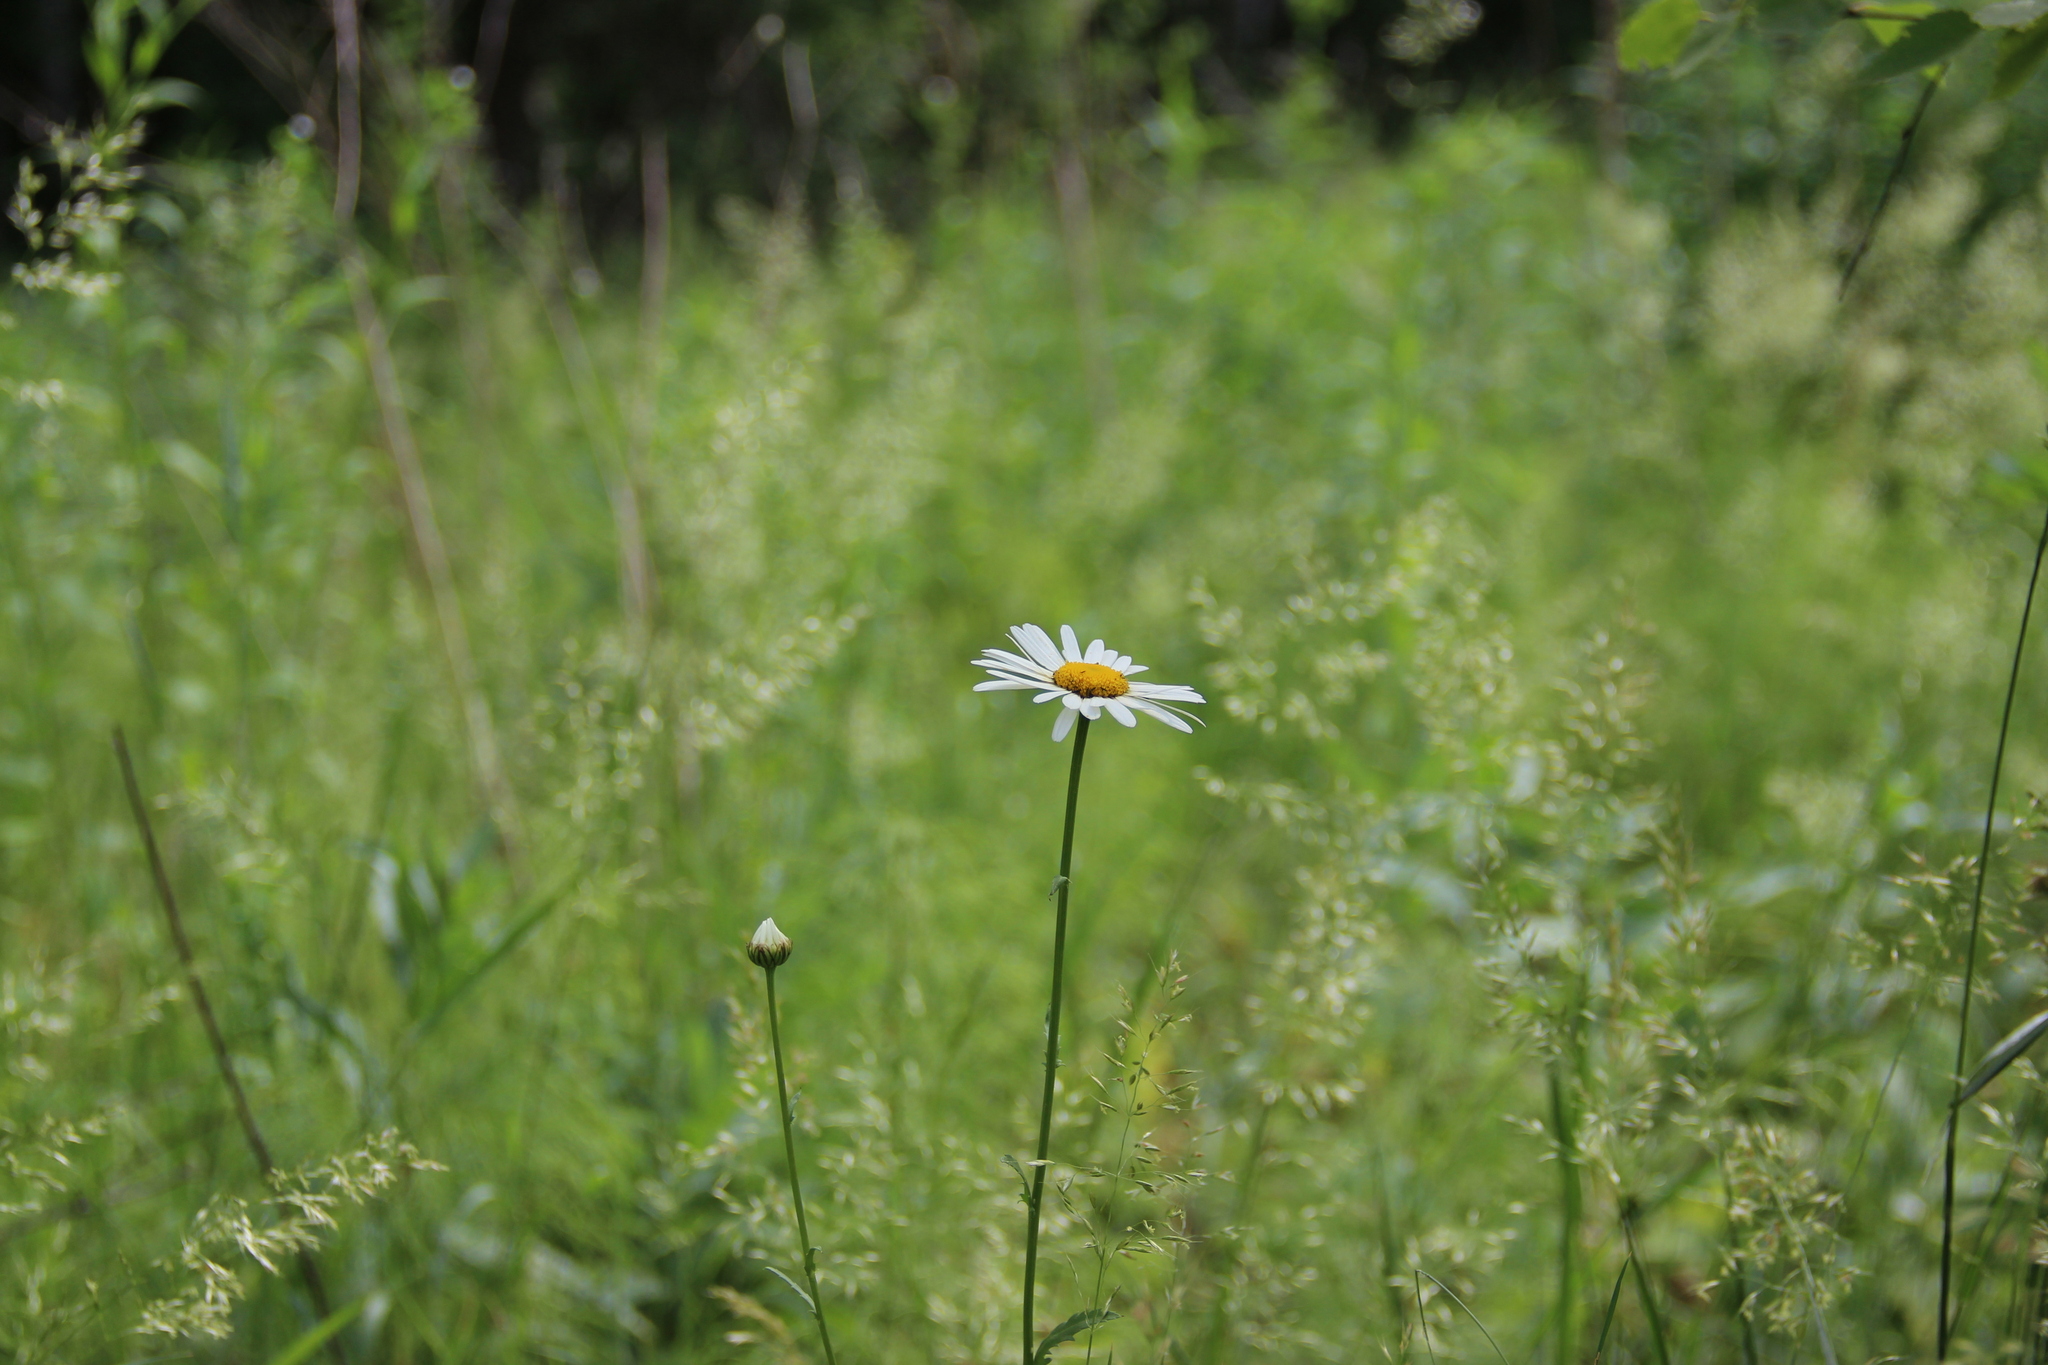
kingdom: Plantae
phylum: Tracheophyta
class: Magnoliopsida
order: Asterales
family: Asteraceae
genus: Leucanthemum
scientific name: Leucanthemum vulgare
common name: Oxeye daisy
